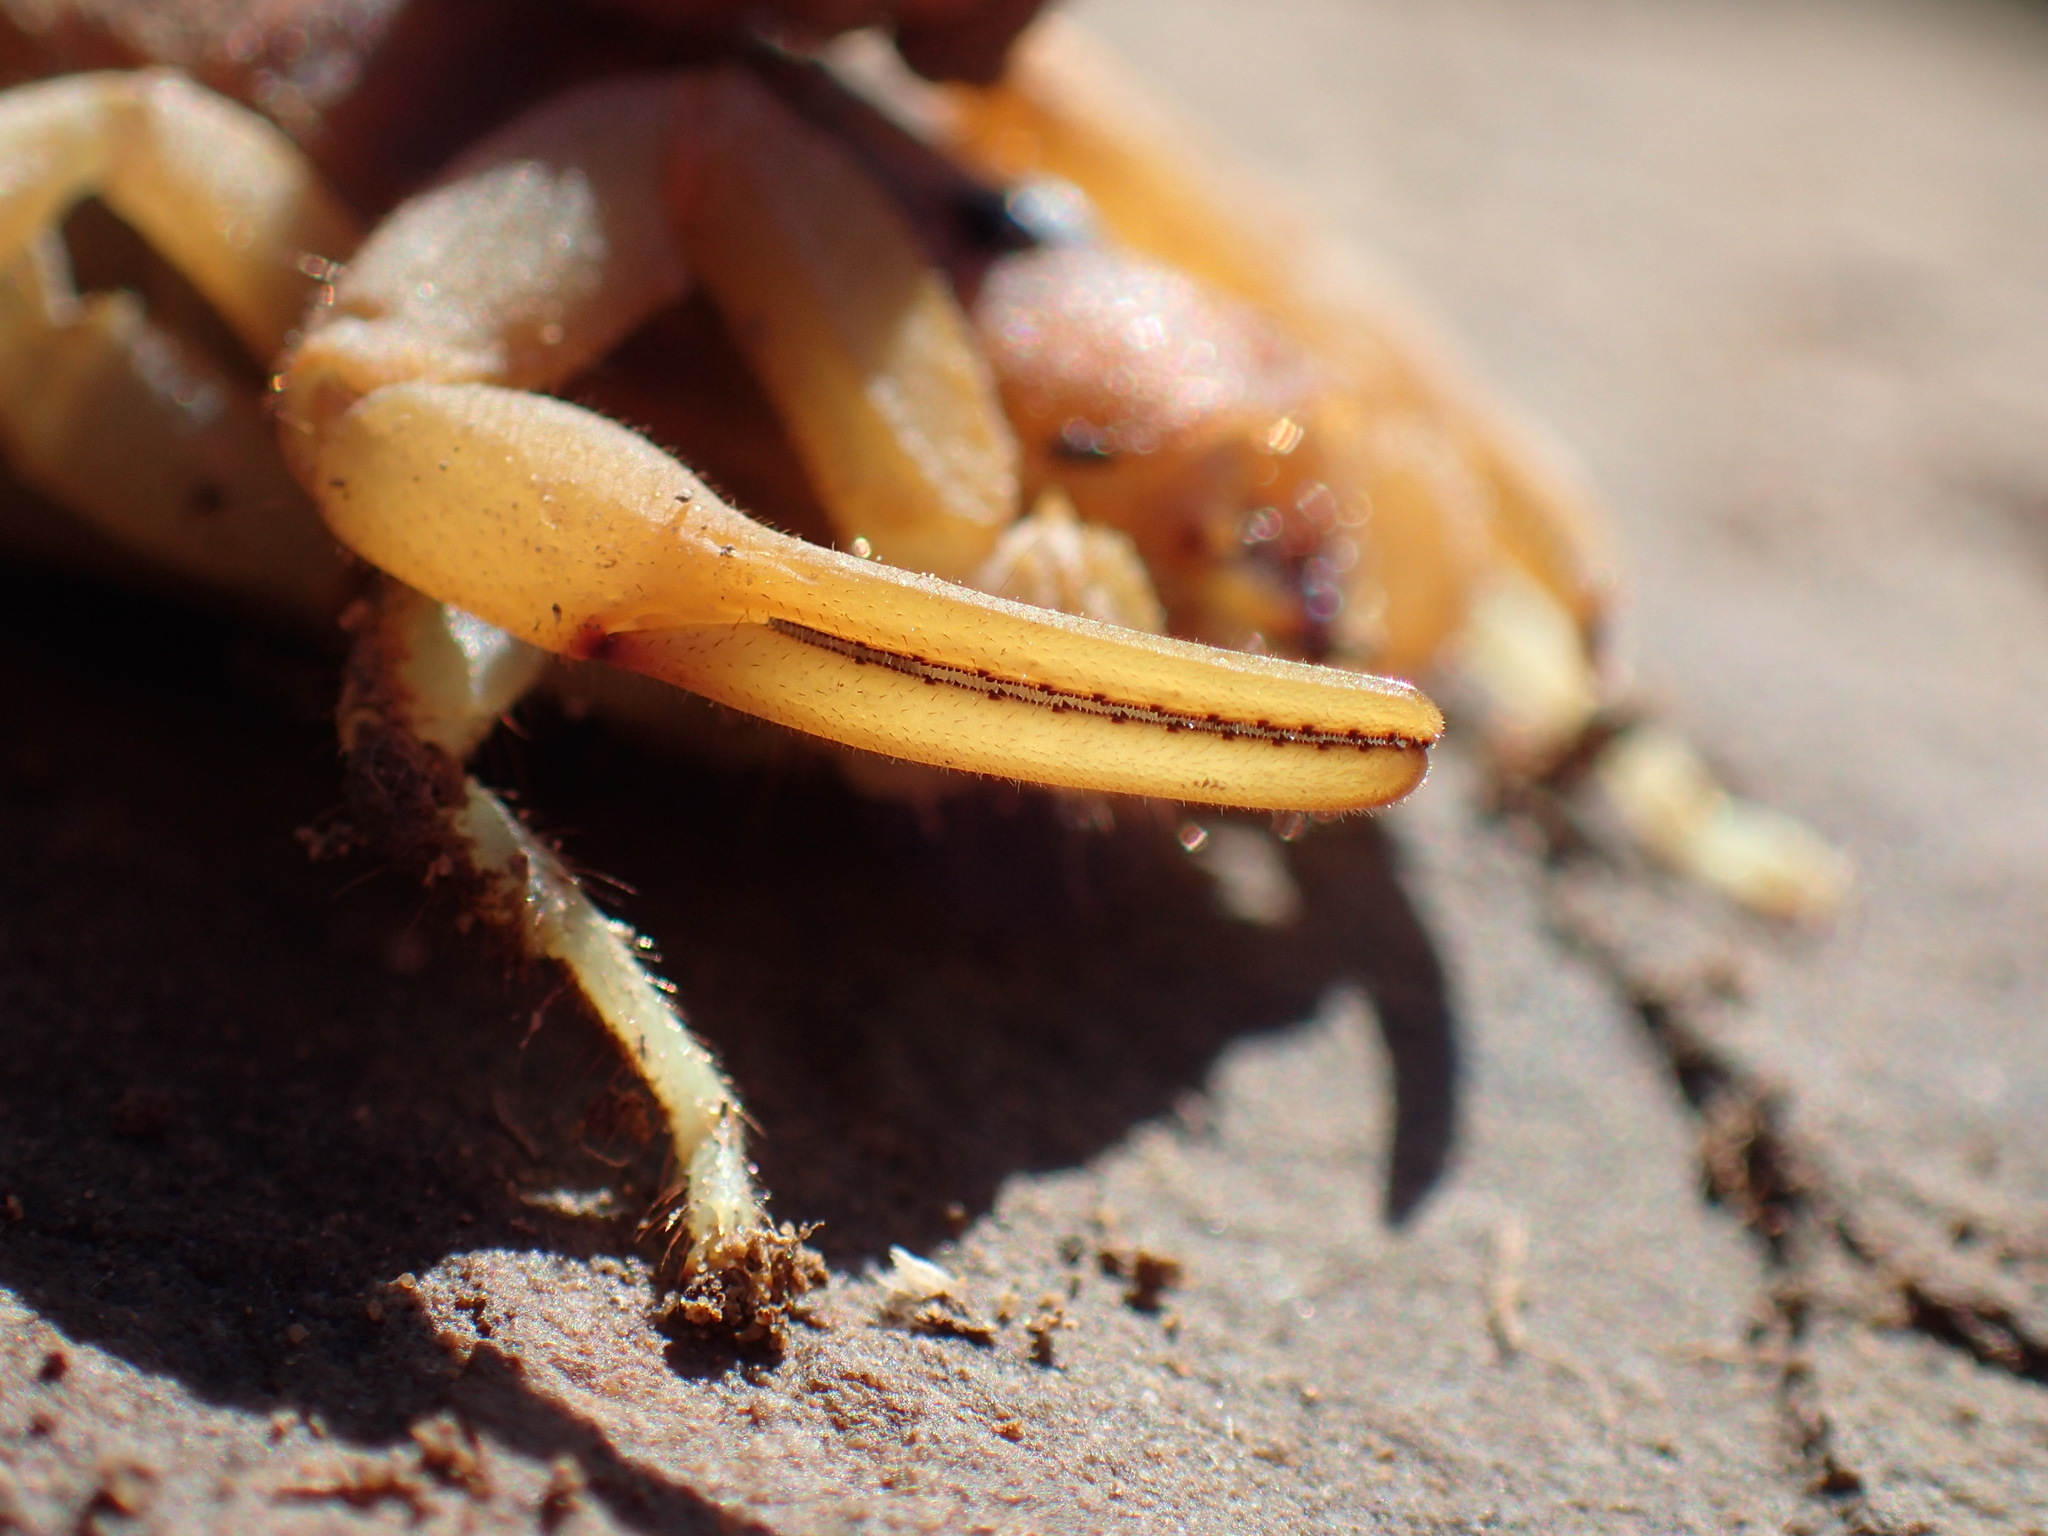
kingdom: Animalia
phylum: Arthropoda
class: Arachnida
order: Scorpiones
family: Buthidae
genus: Parabuthus
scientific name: Parabuthus planicauda
